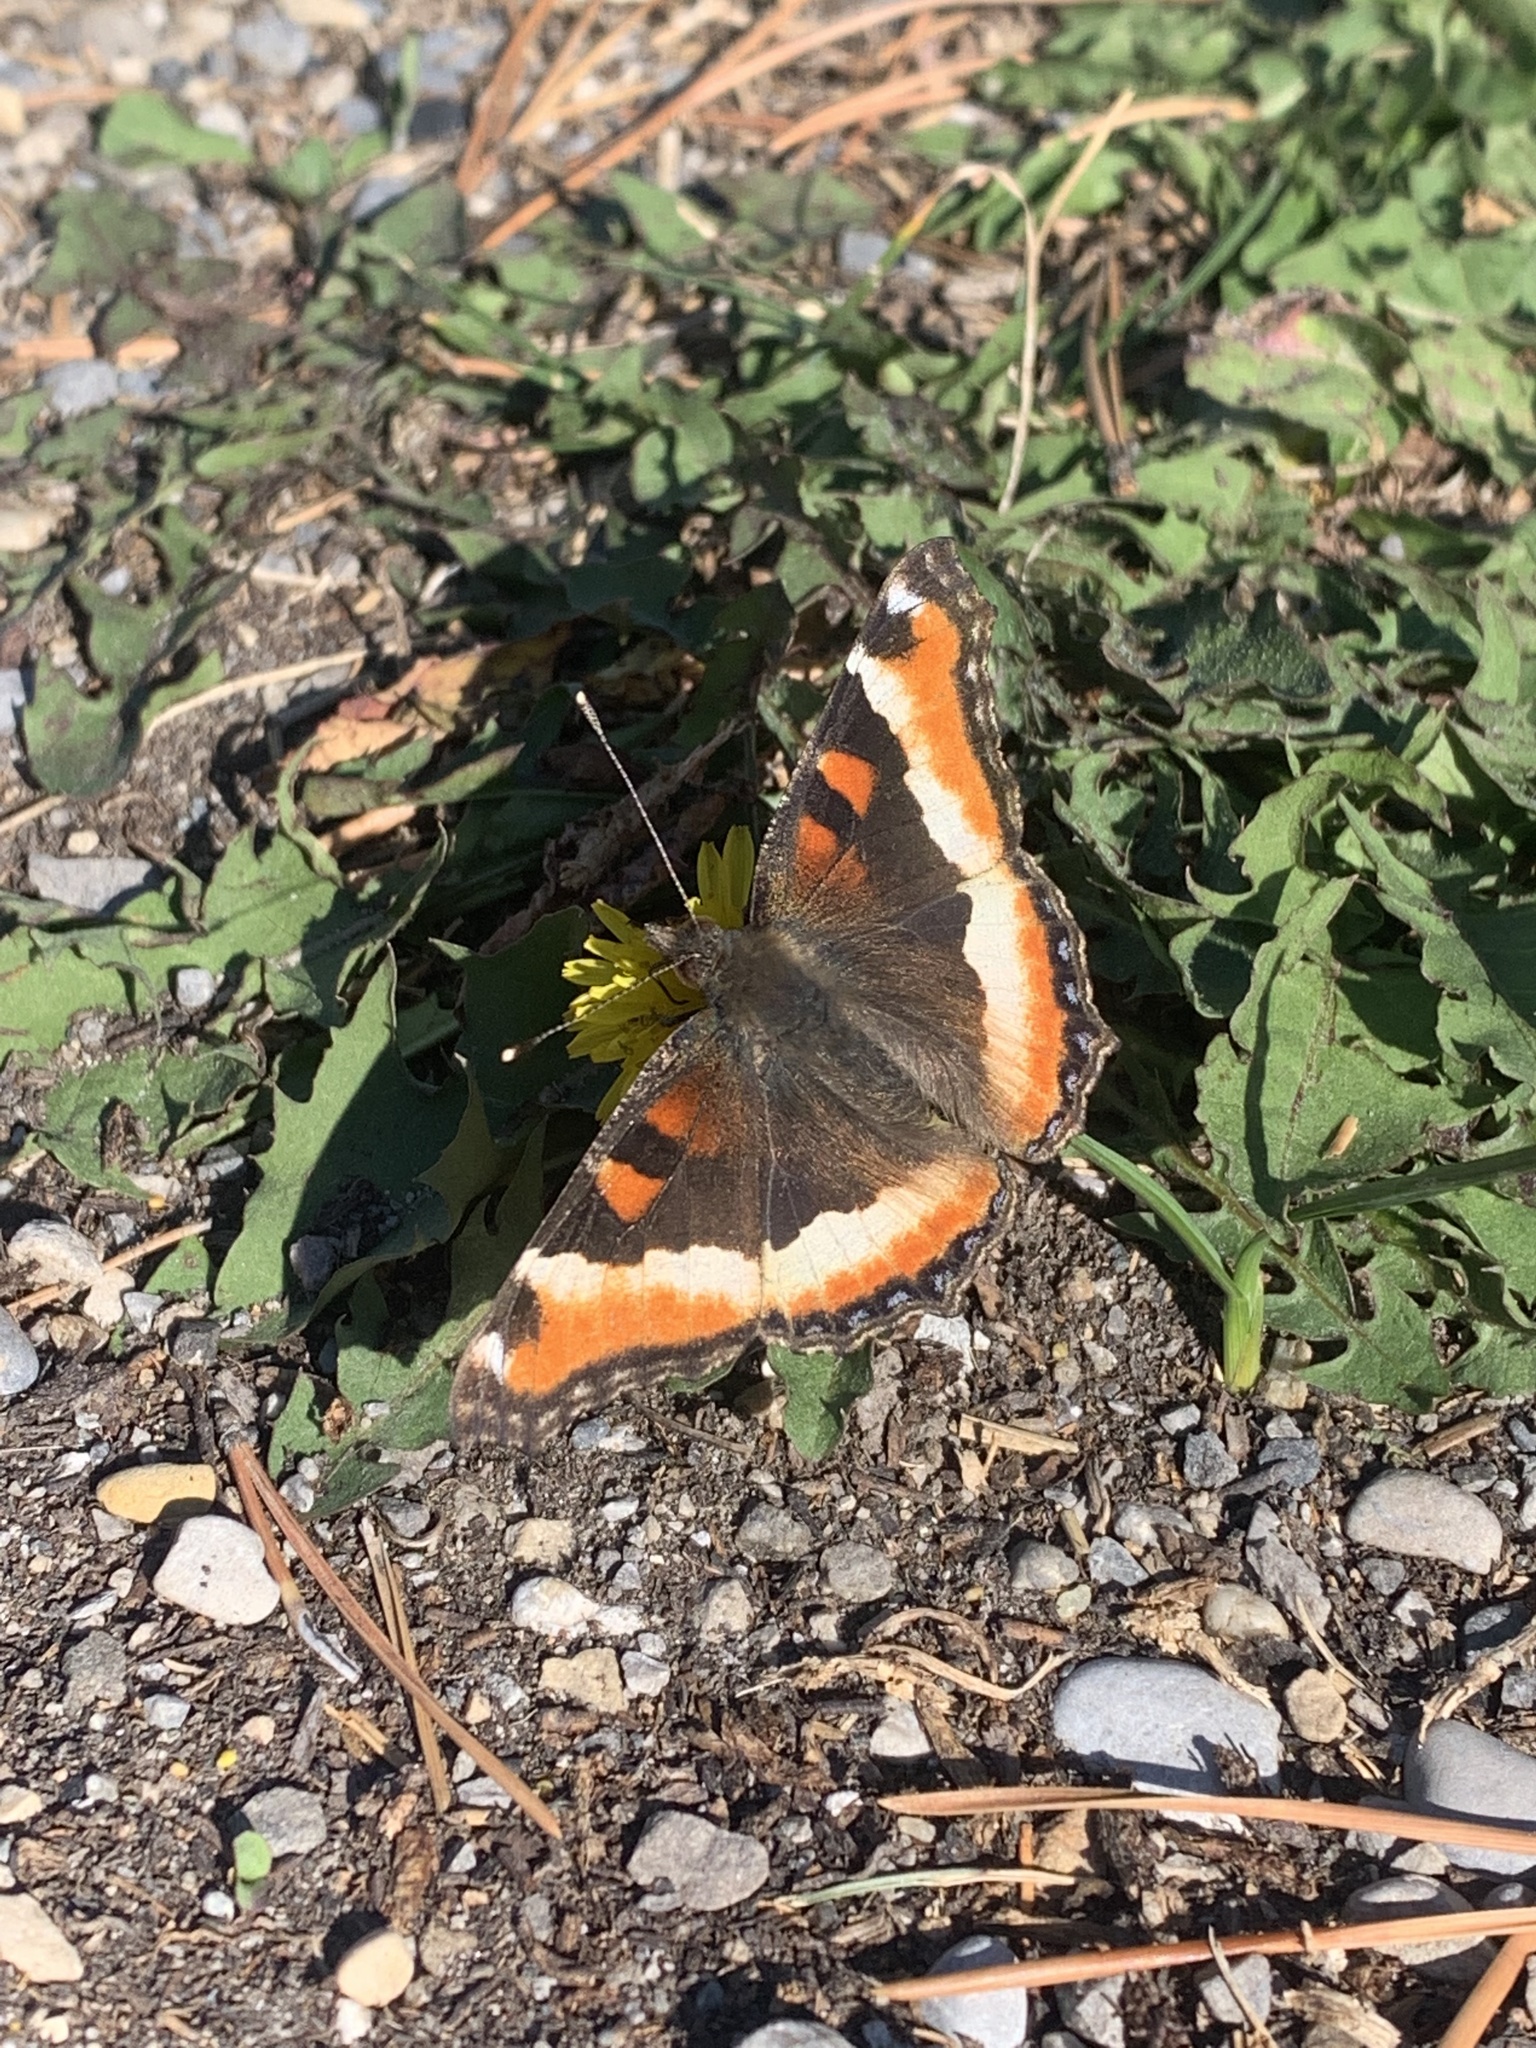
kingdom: Animalia
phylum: Arthropoda
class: Insecta
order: Lepidoptera
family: Nymphalidae
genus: Aglais
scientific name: Aglais milberti
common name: Milbert's tortoiseshell
